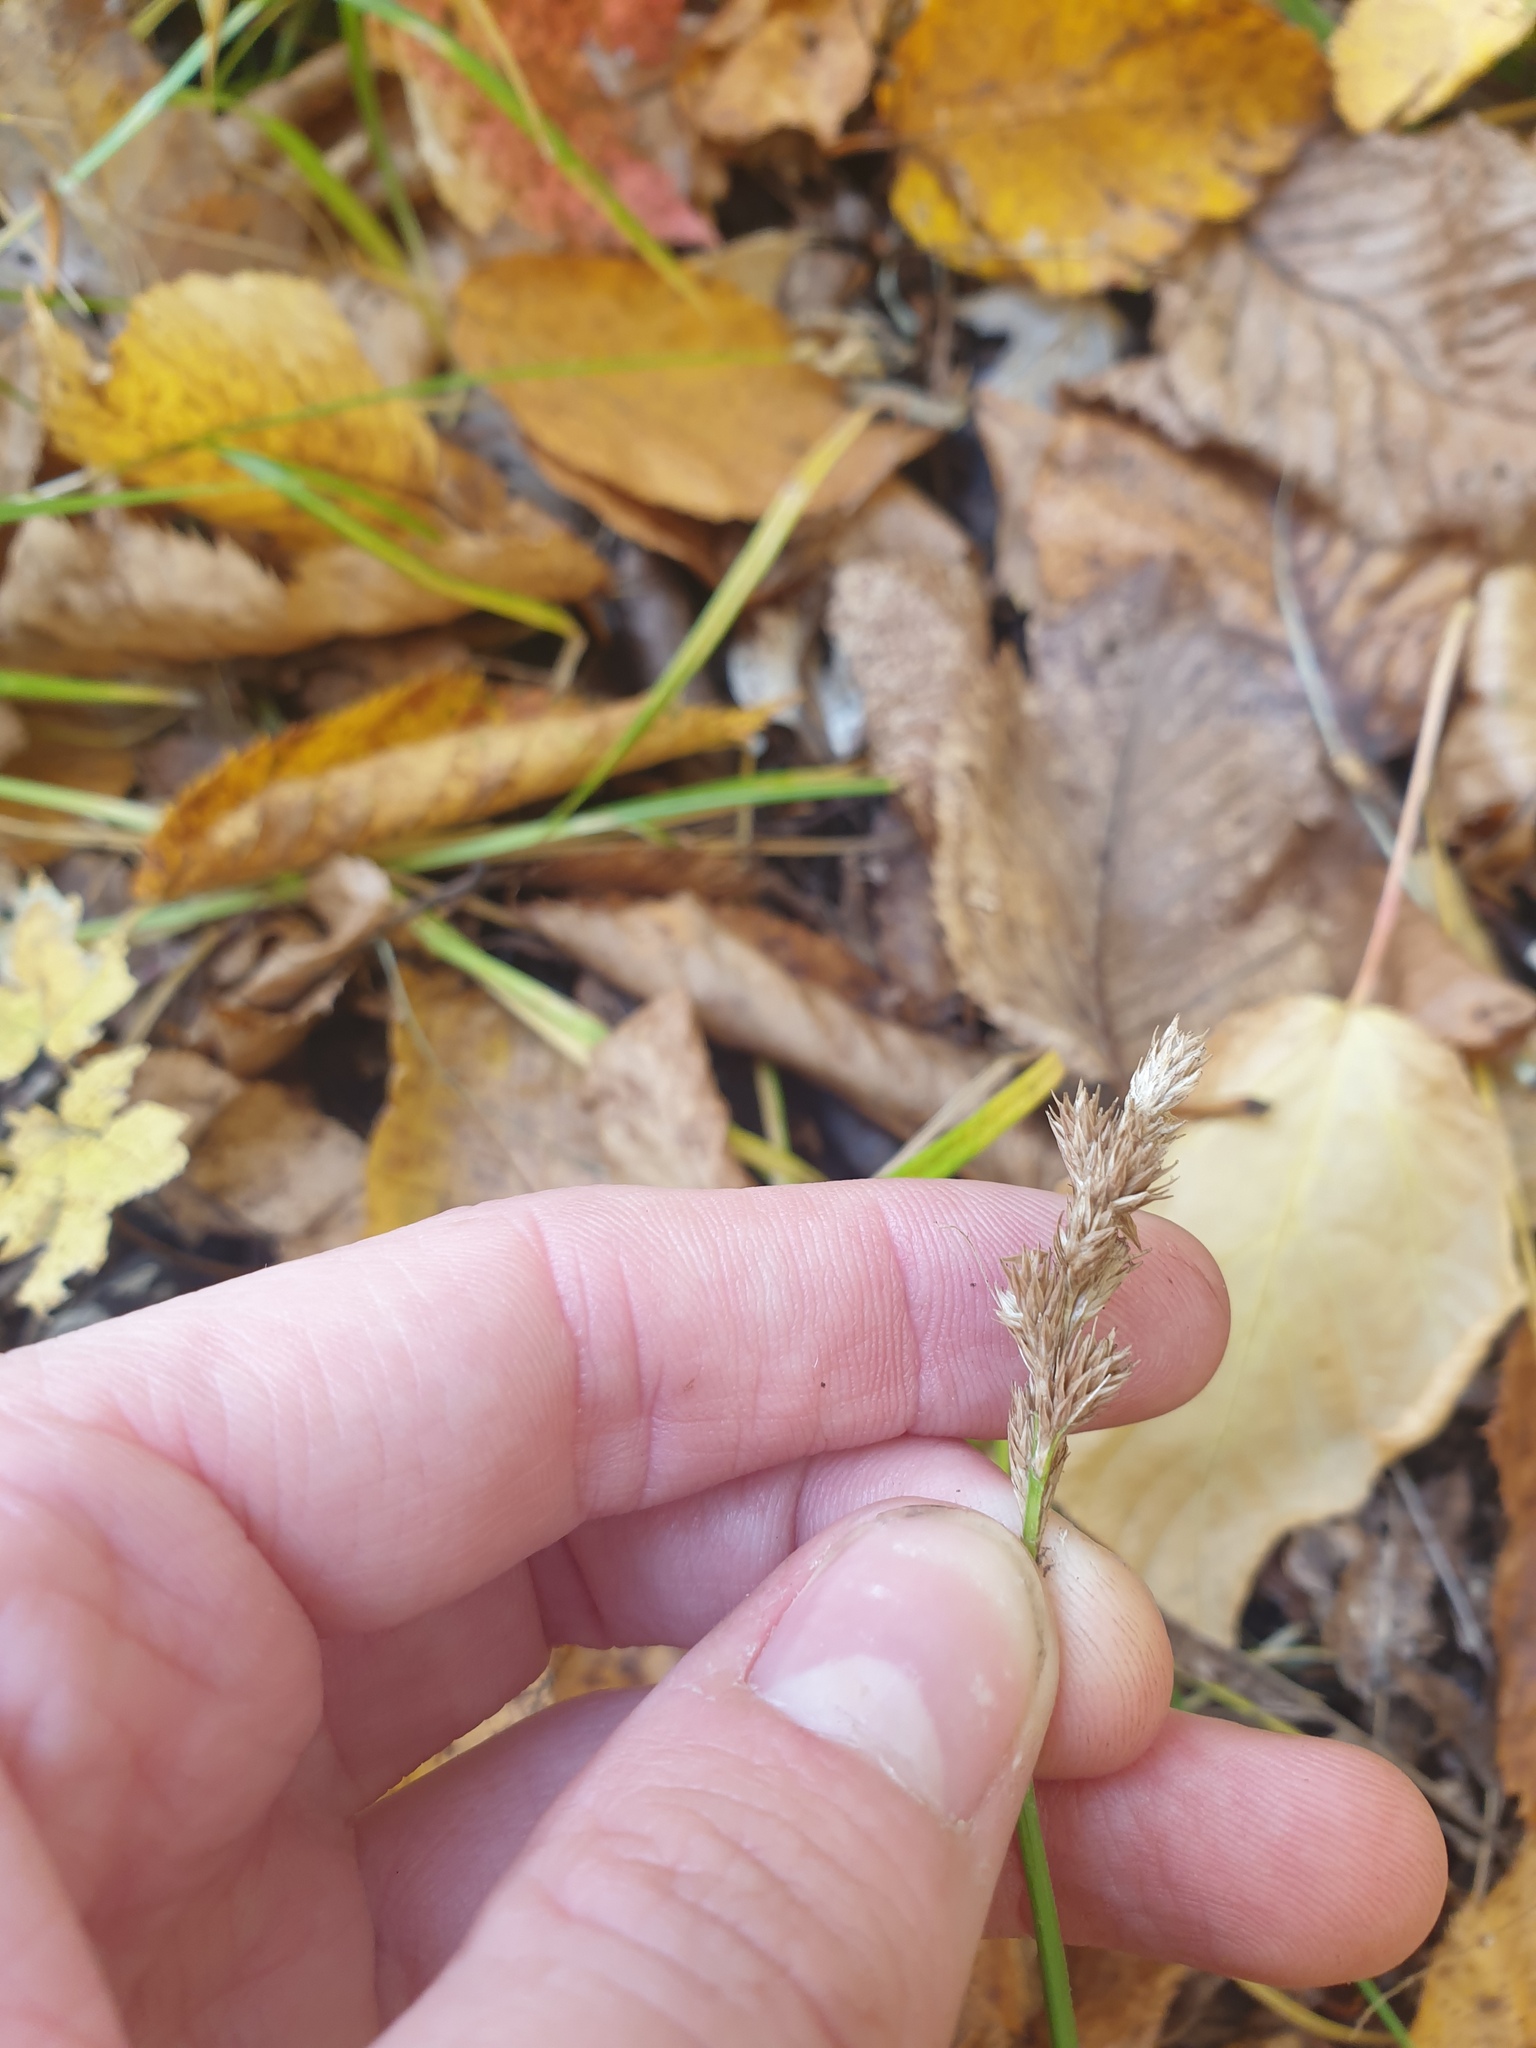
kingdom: Plantae
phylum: Tracheophyta
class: Liliopsida
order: Poales
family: Cyperaceae
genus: Carex
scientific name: Carex tribuloides
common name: Blunt broom sedge
